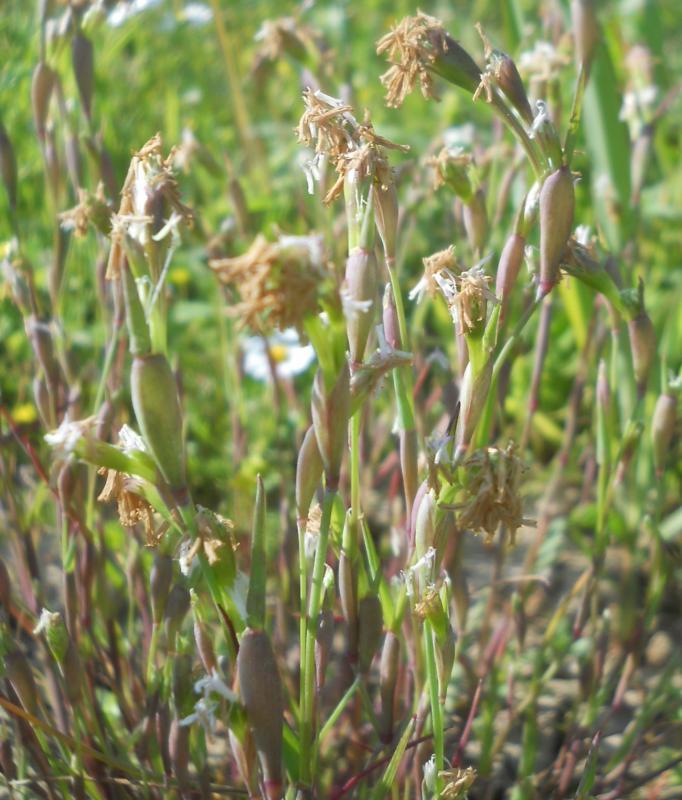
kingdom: Plantae
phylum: Tracheophyta
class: Liliopsida
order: Poales
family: Poaceae
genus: Cornucopiae
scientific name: Cornucopiae cucullatum
